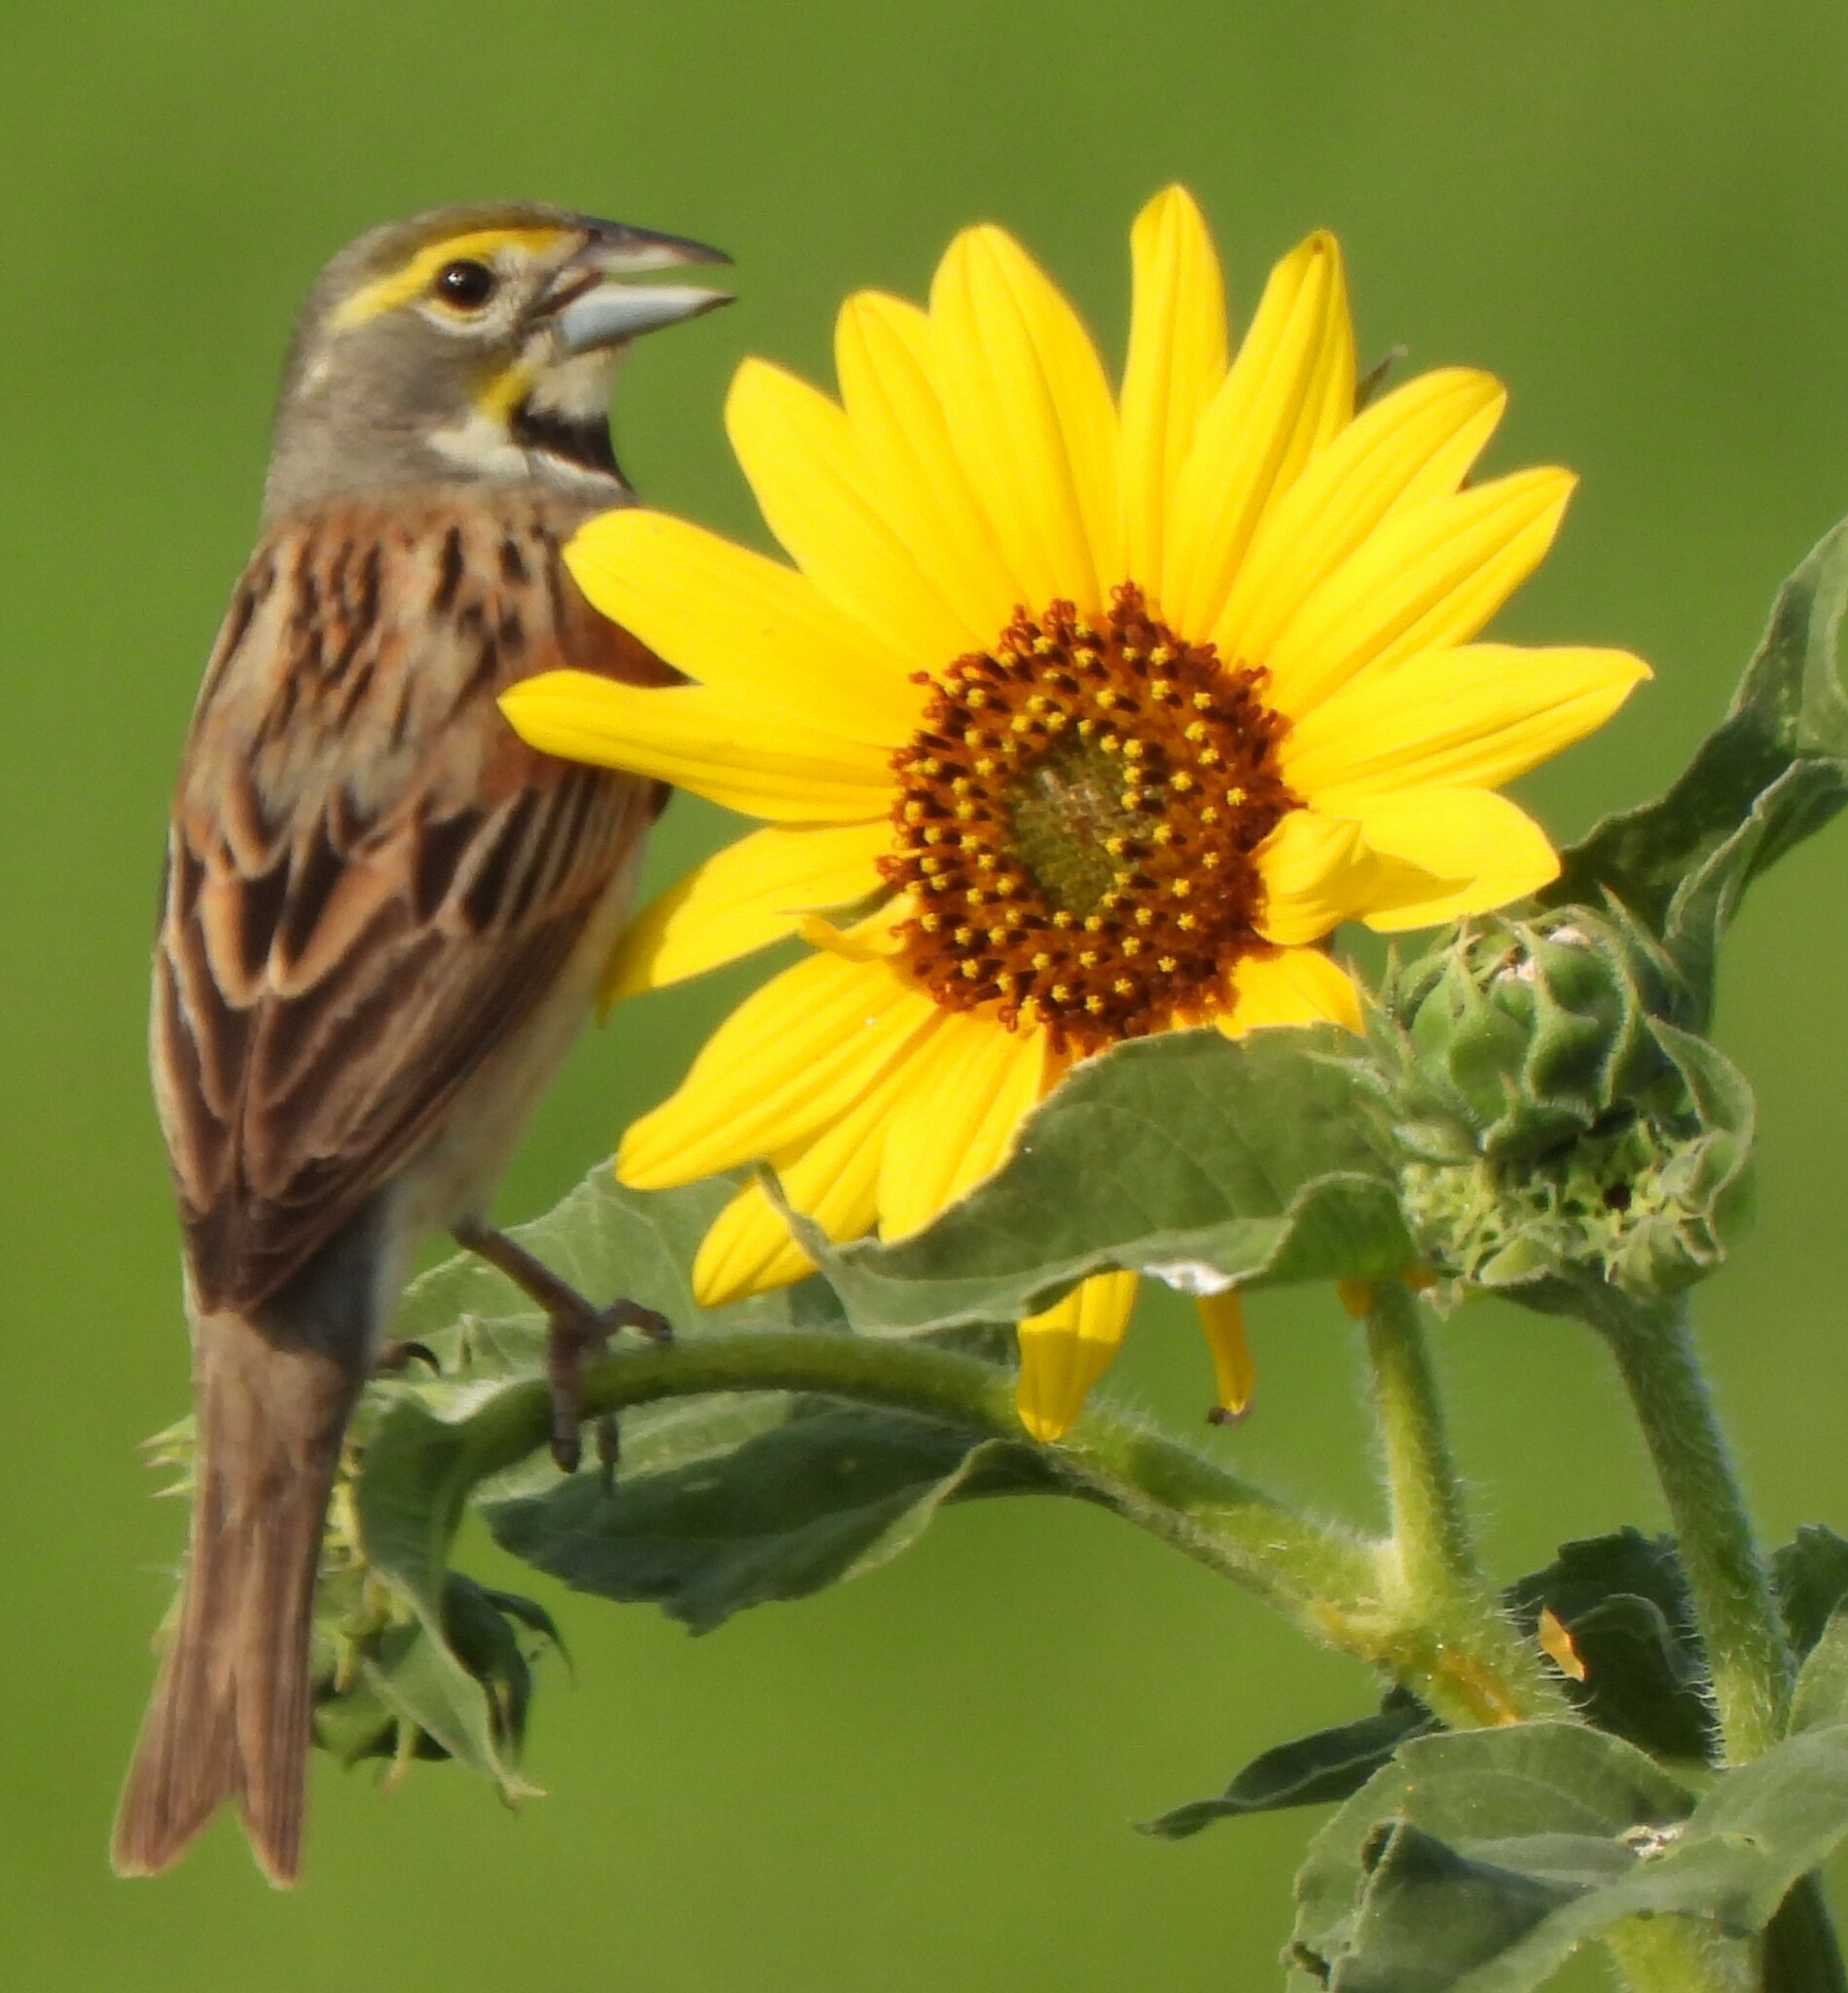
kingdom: Animalia
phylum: Chordata
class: Aves
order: Passeriformes
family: Cardinalidae
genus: Spiza
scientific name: Spiza americana
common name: Dickcissel
